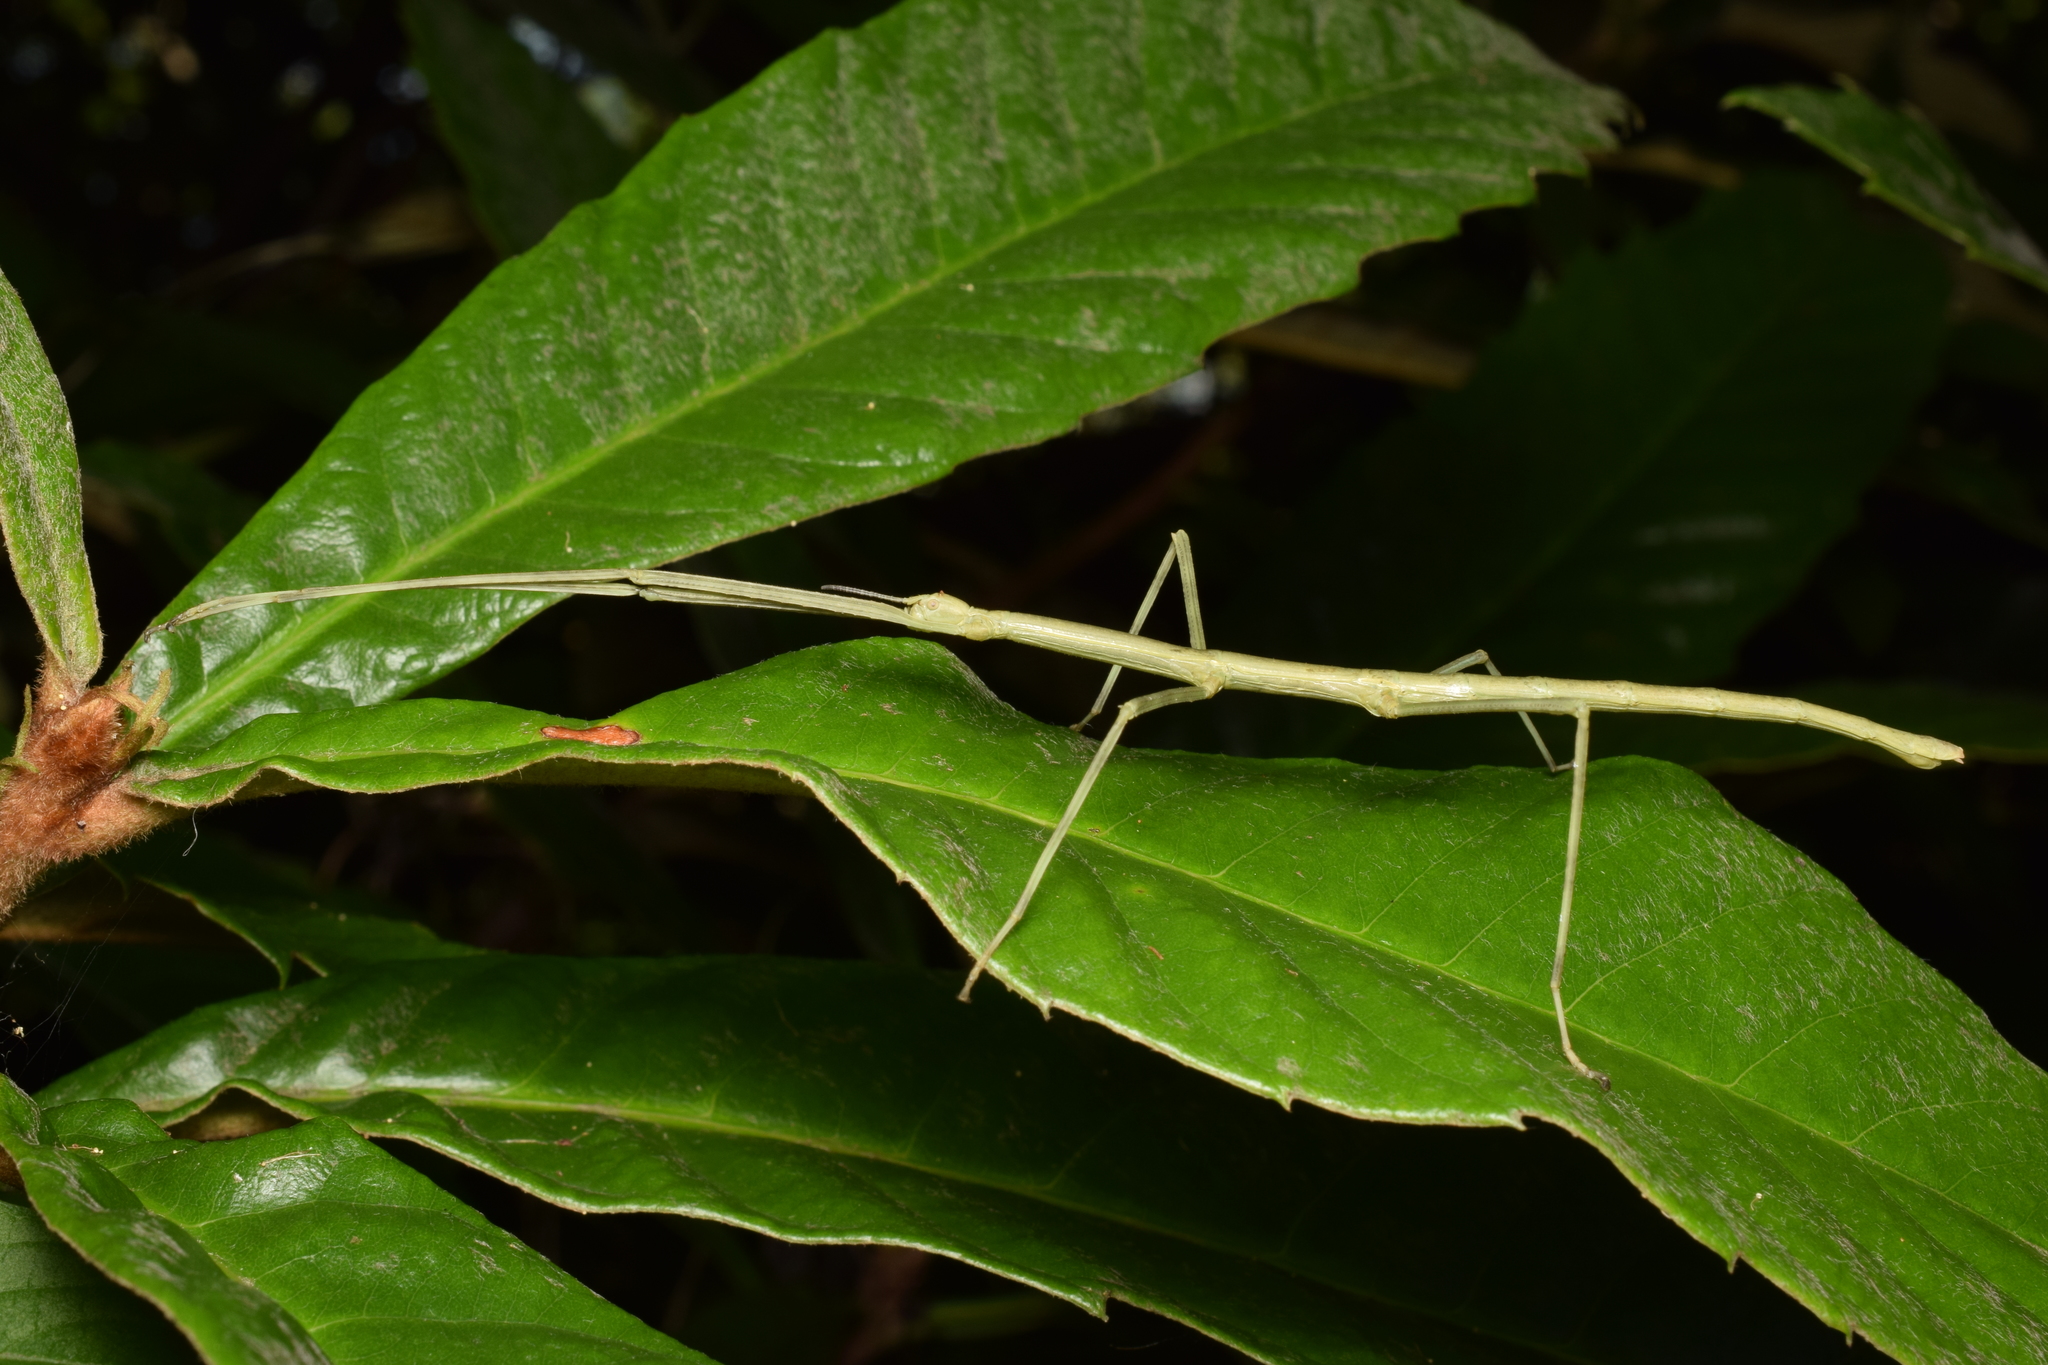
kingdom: Animalia
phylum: Arthropoda
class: Insecta
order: Phasmida
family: Phasmatidae
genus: Ramulus
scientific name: Ramulus mikado
